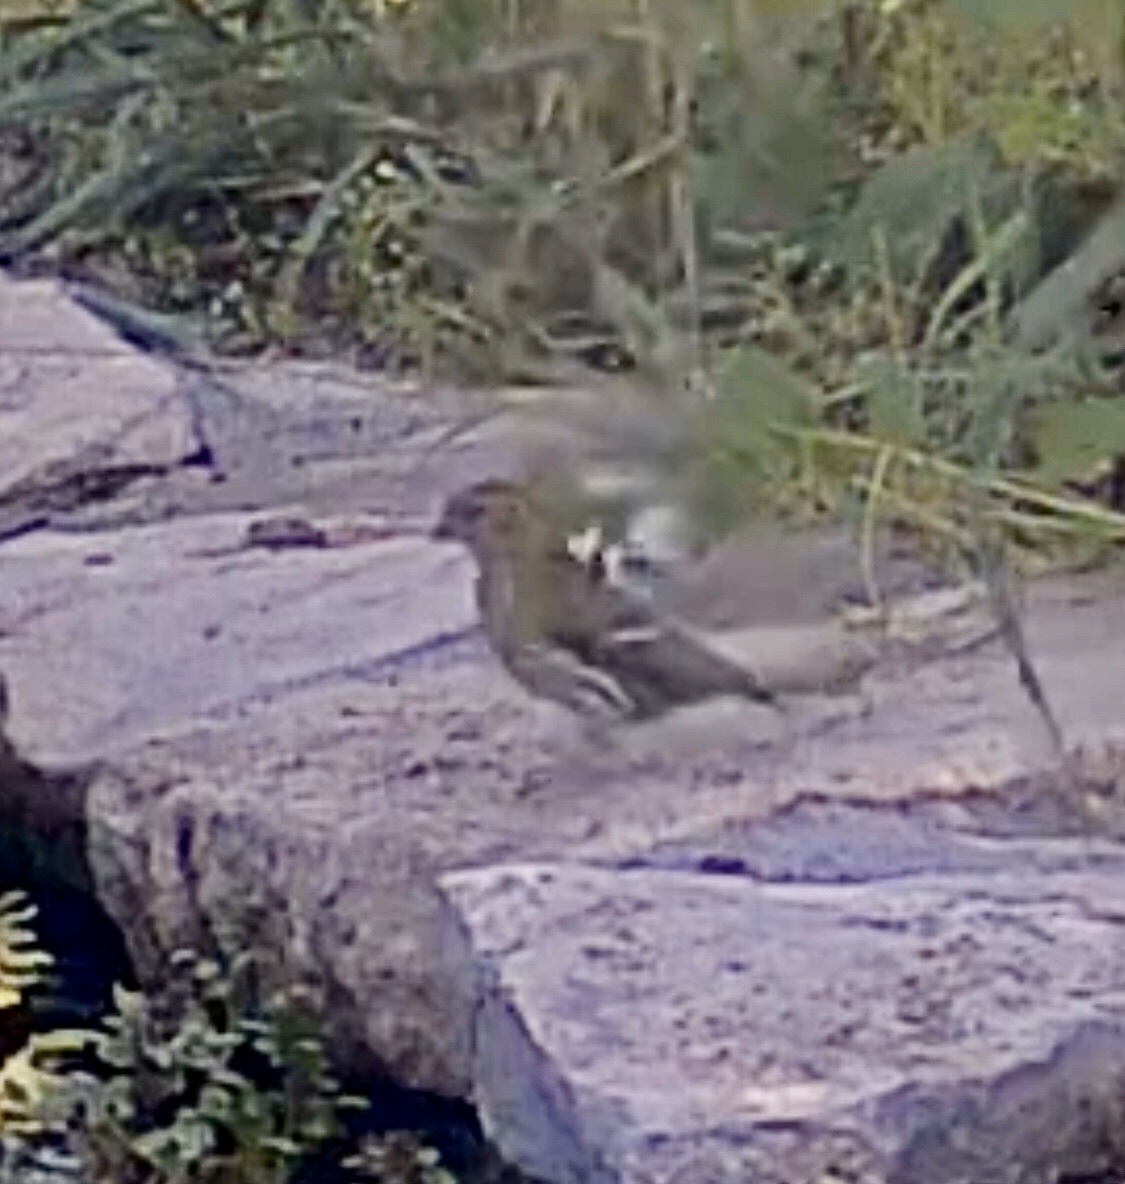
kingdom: Animalia
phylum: Chordata
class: Aves
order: Passeriformes
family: Fringillidae
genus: Spinus
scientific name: Spinus spinus
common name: Eurasian siskin
